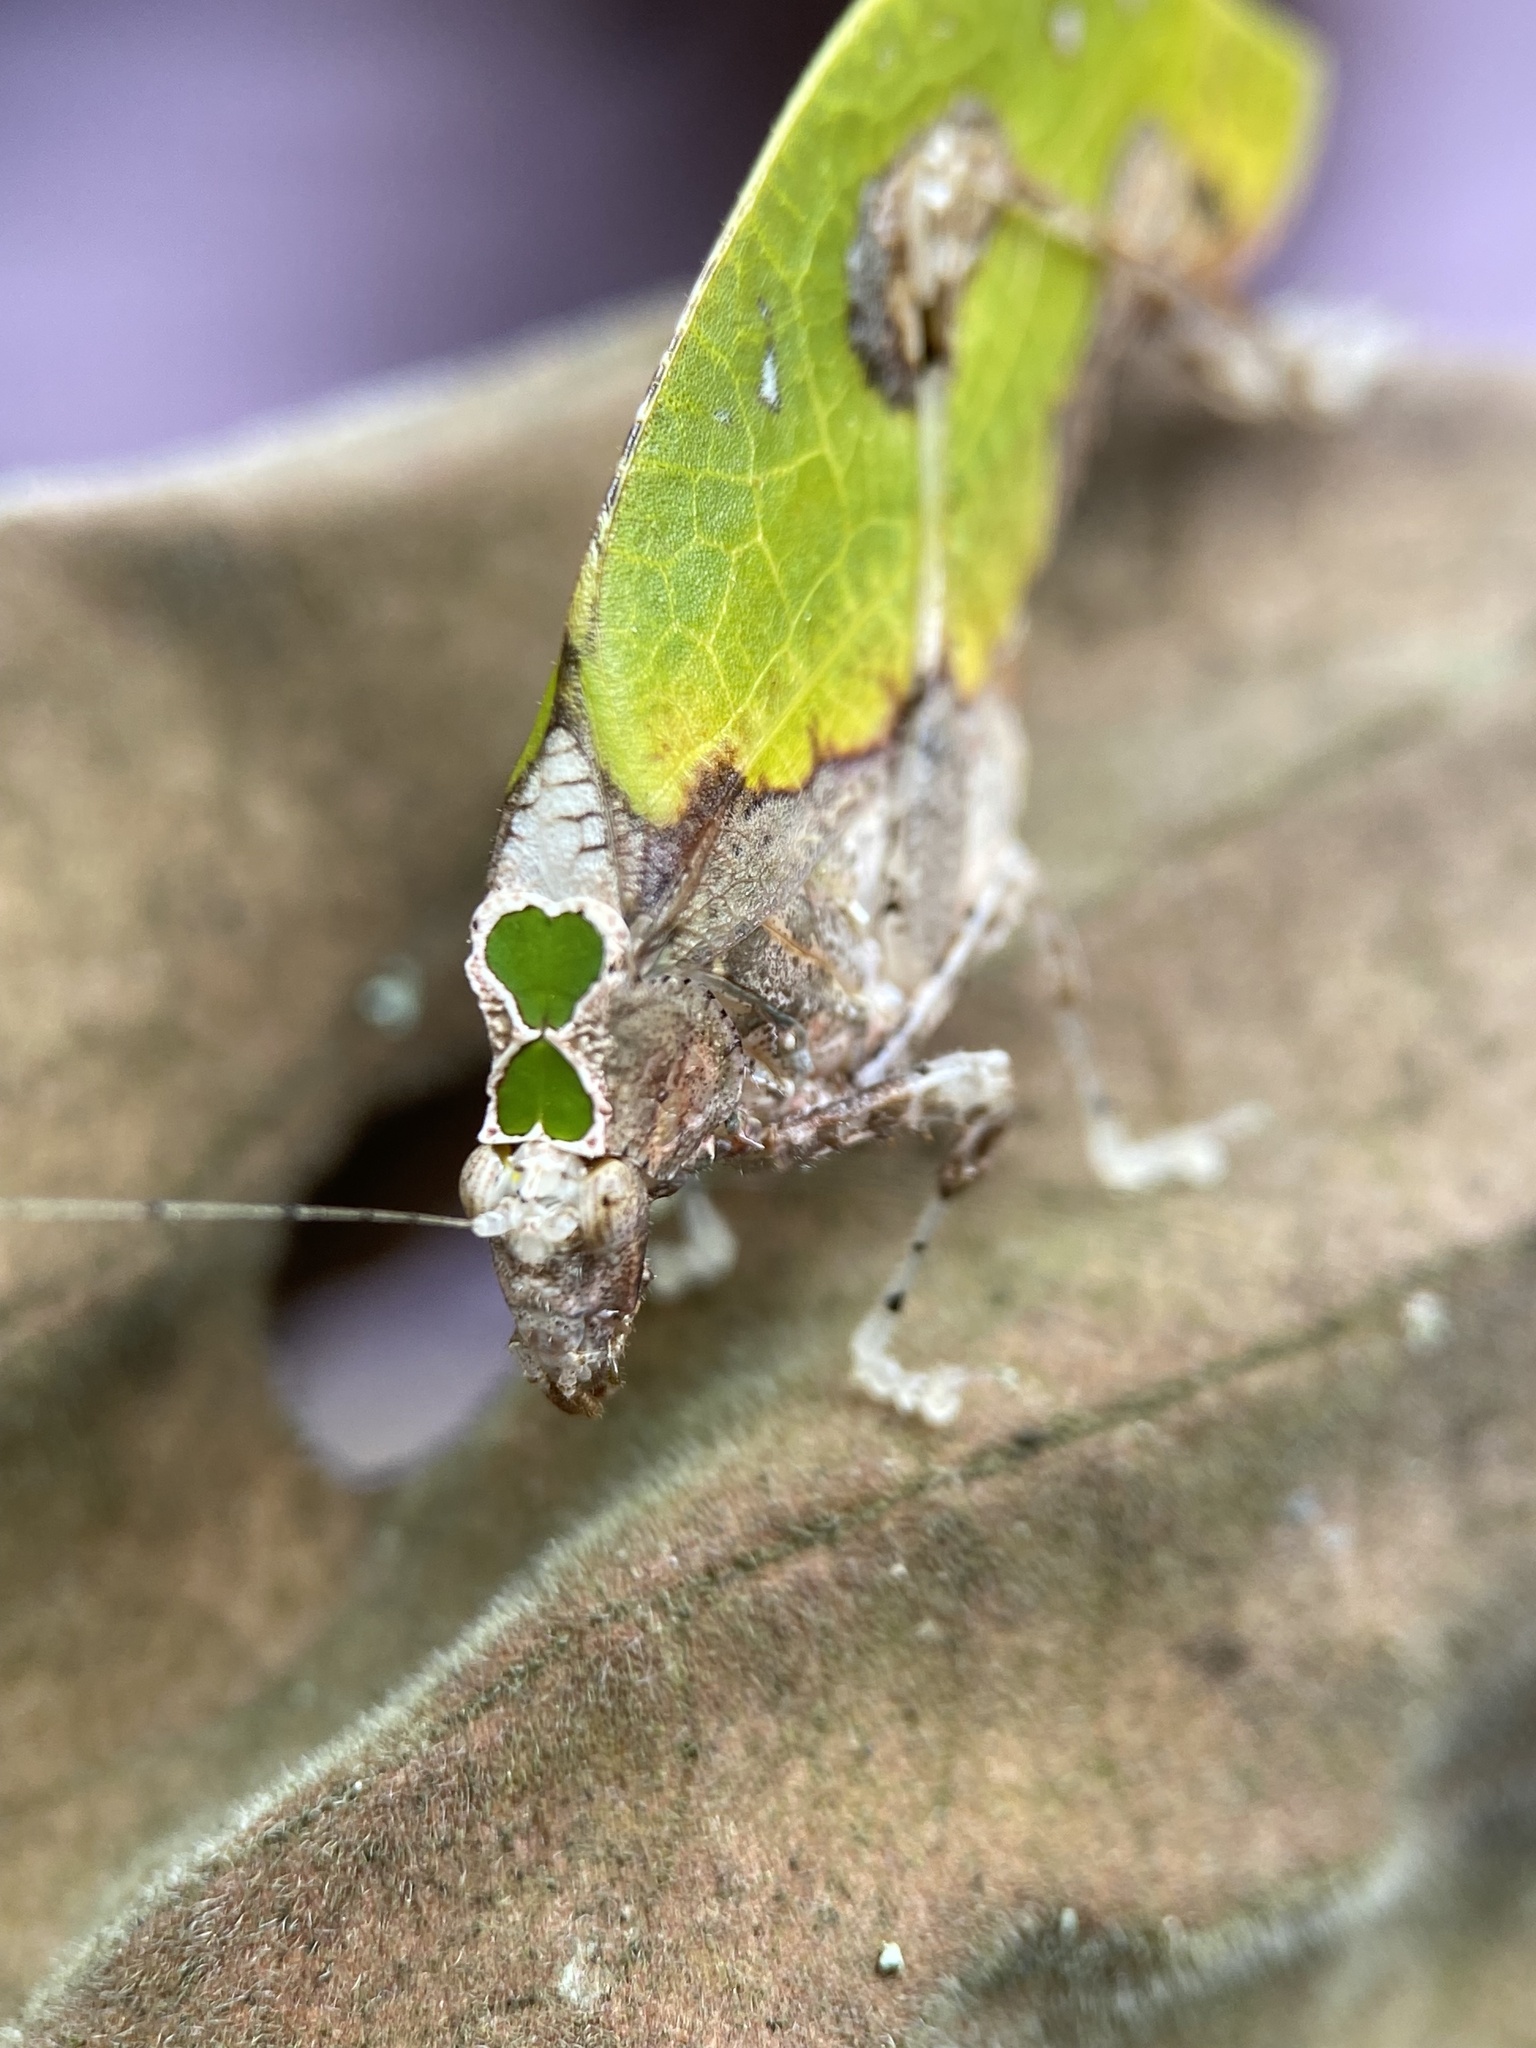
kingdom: Animalia
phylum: Arthropoda
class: Insecta
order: Orthoptera
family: Tettigoniidae
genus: Pycnopalpa
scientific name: Pycnopalpa bicordata
